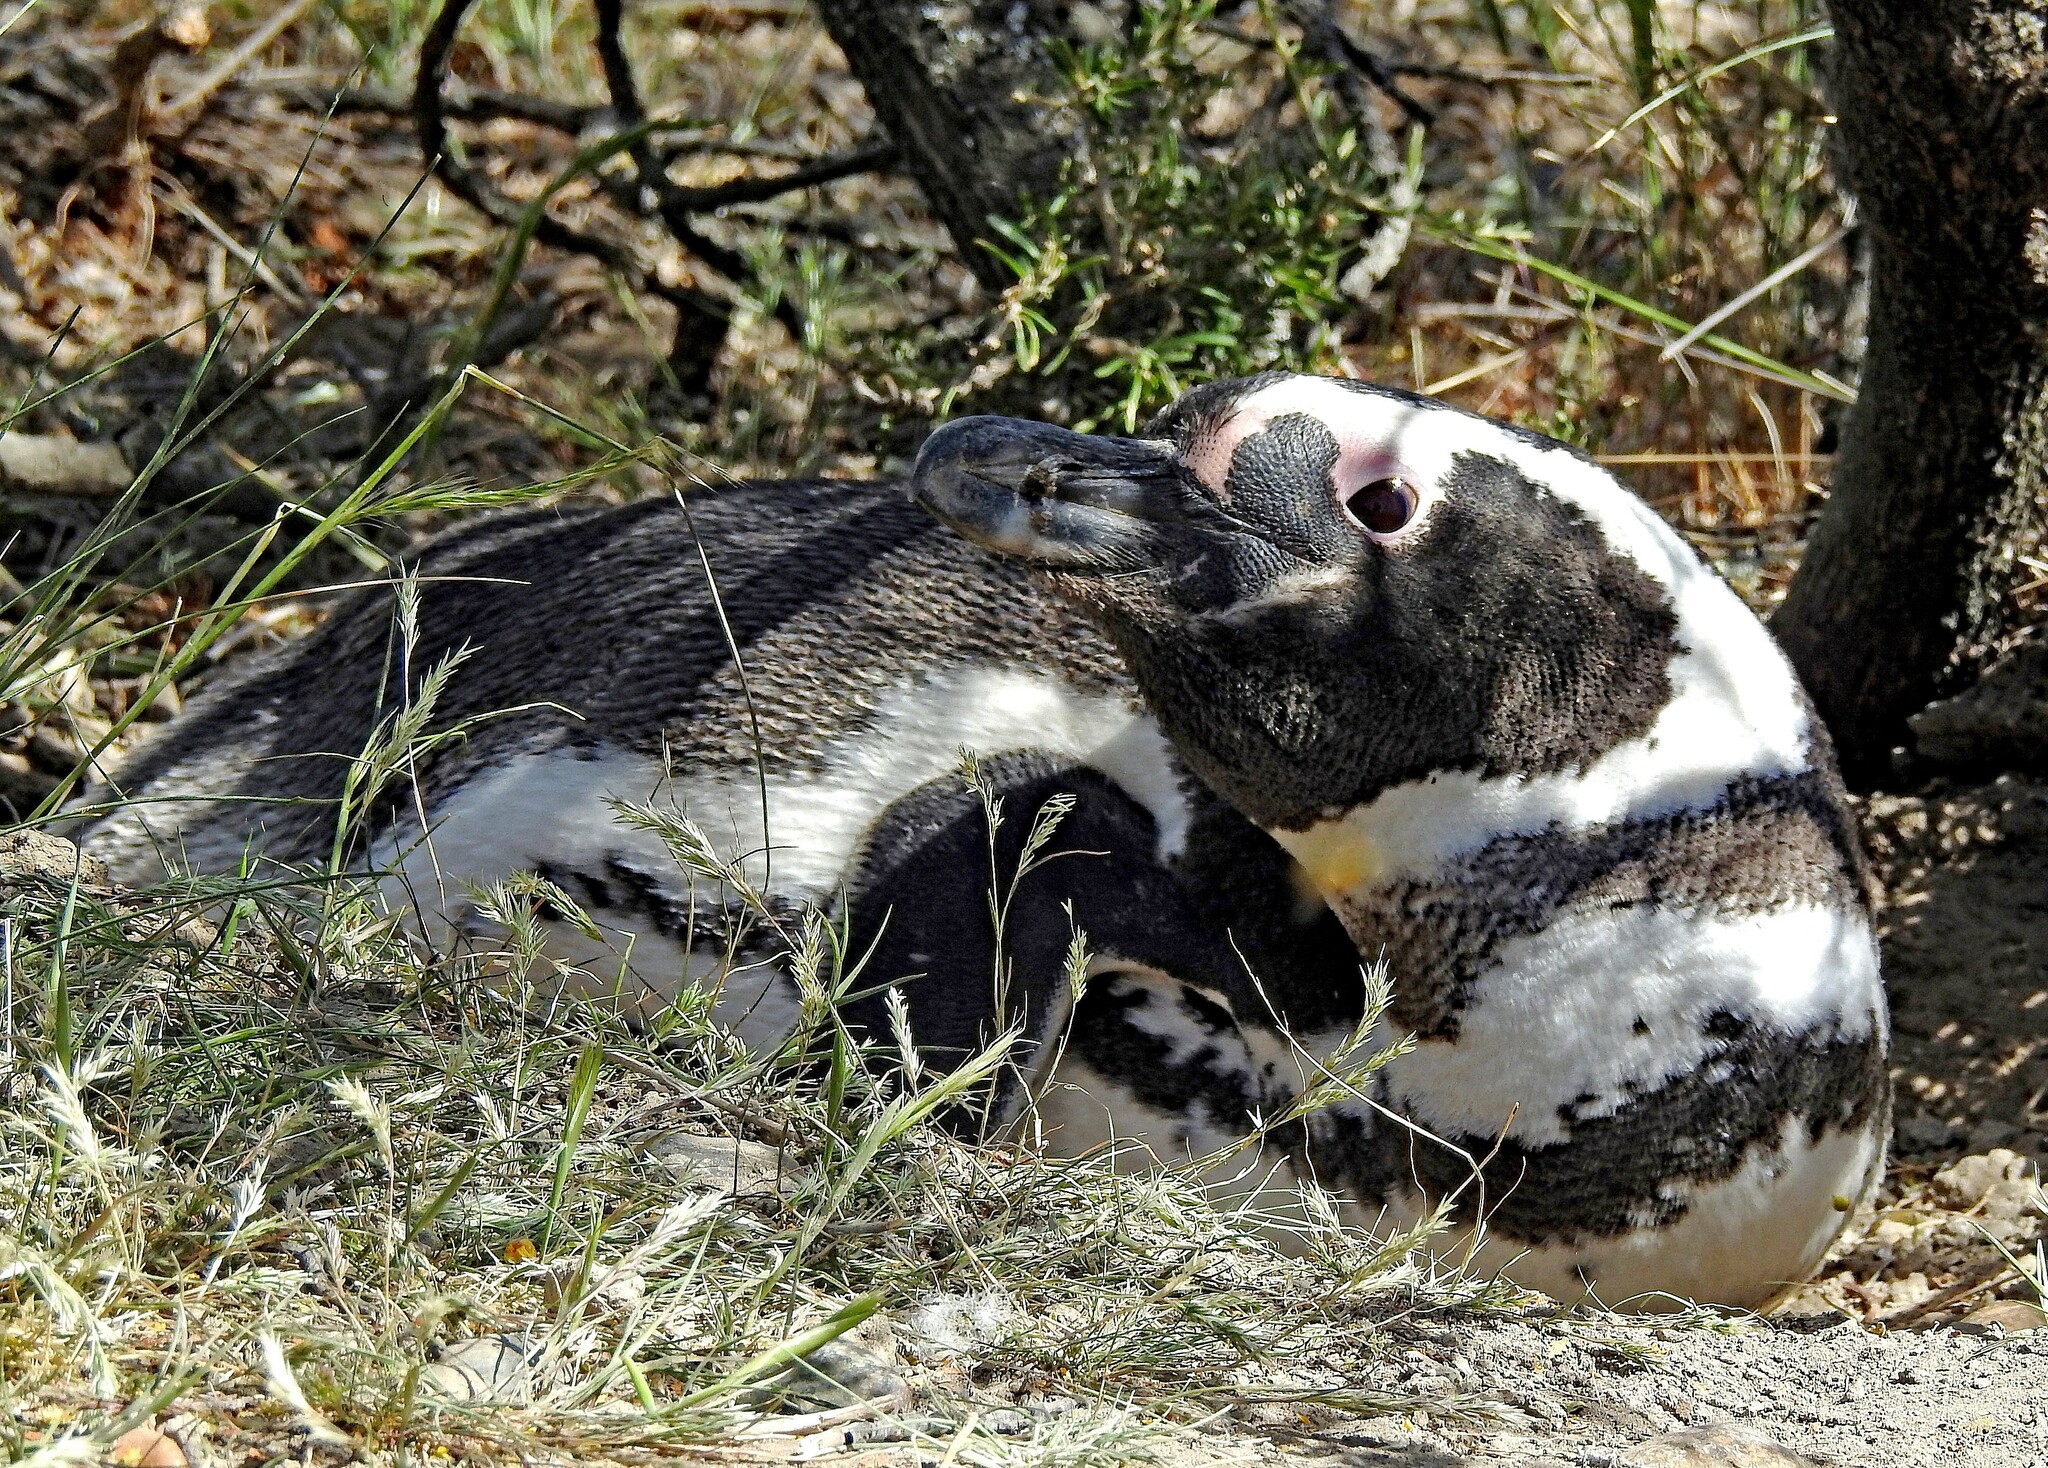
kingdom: Animalia
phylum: Chordata
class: Aves
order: Sphenisciformes
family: Spheniscidae
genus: Spheniscus
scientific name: Spheniscus magellanicus
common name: Magellanic penguin
